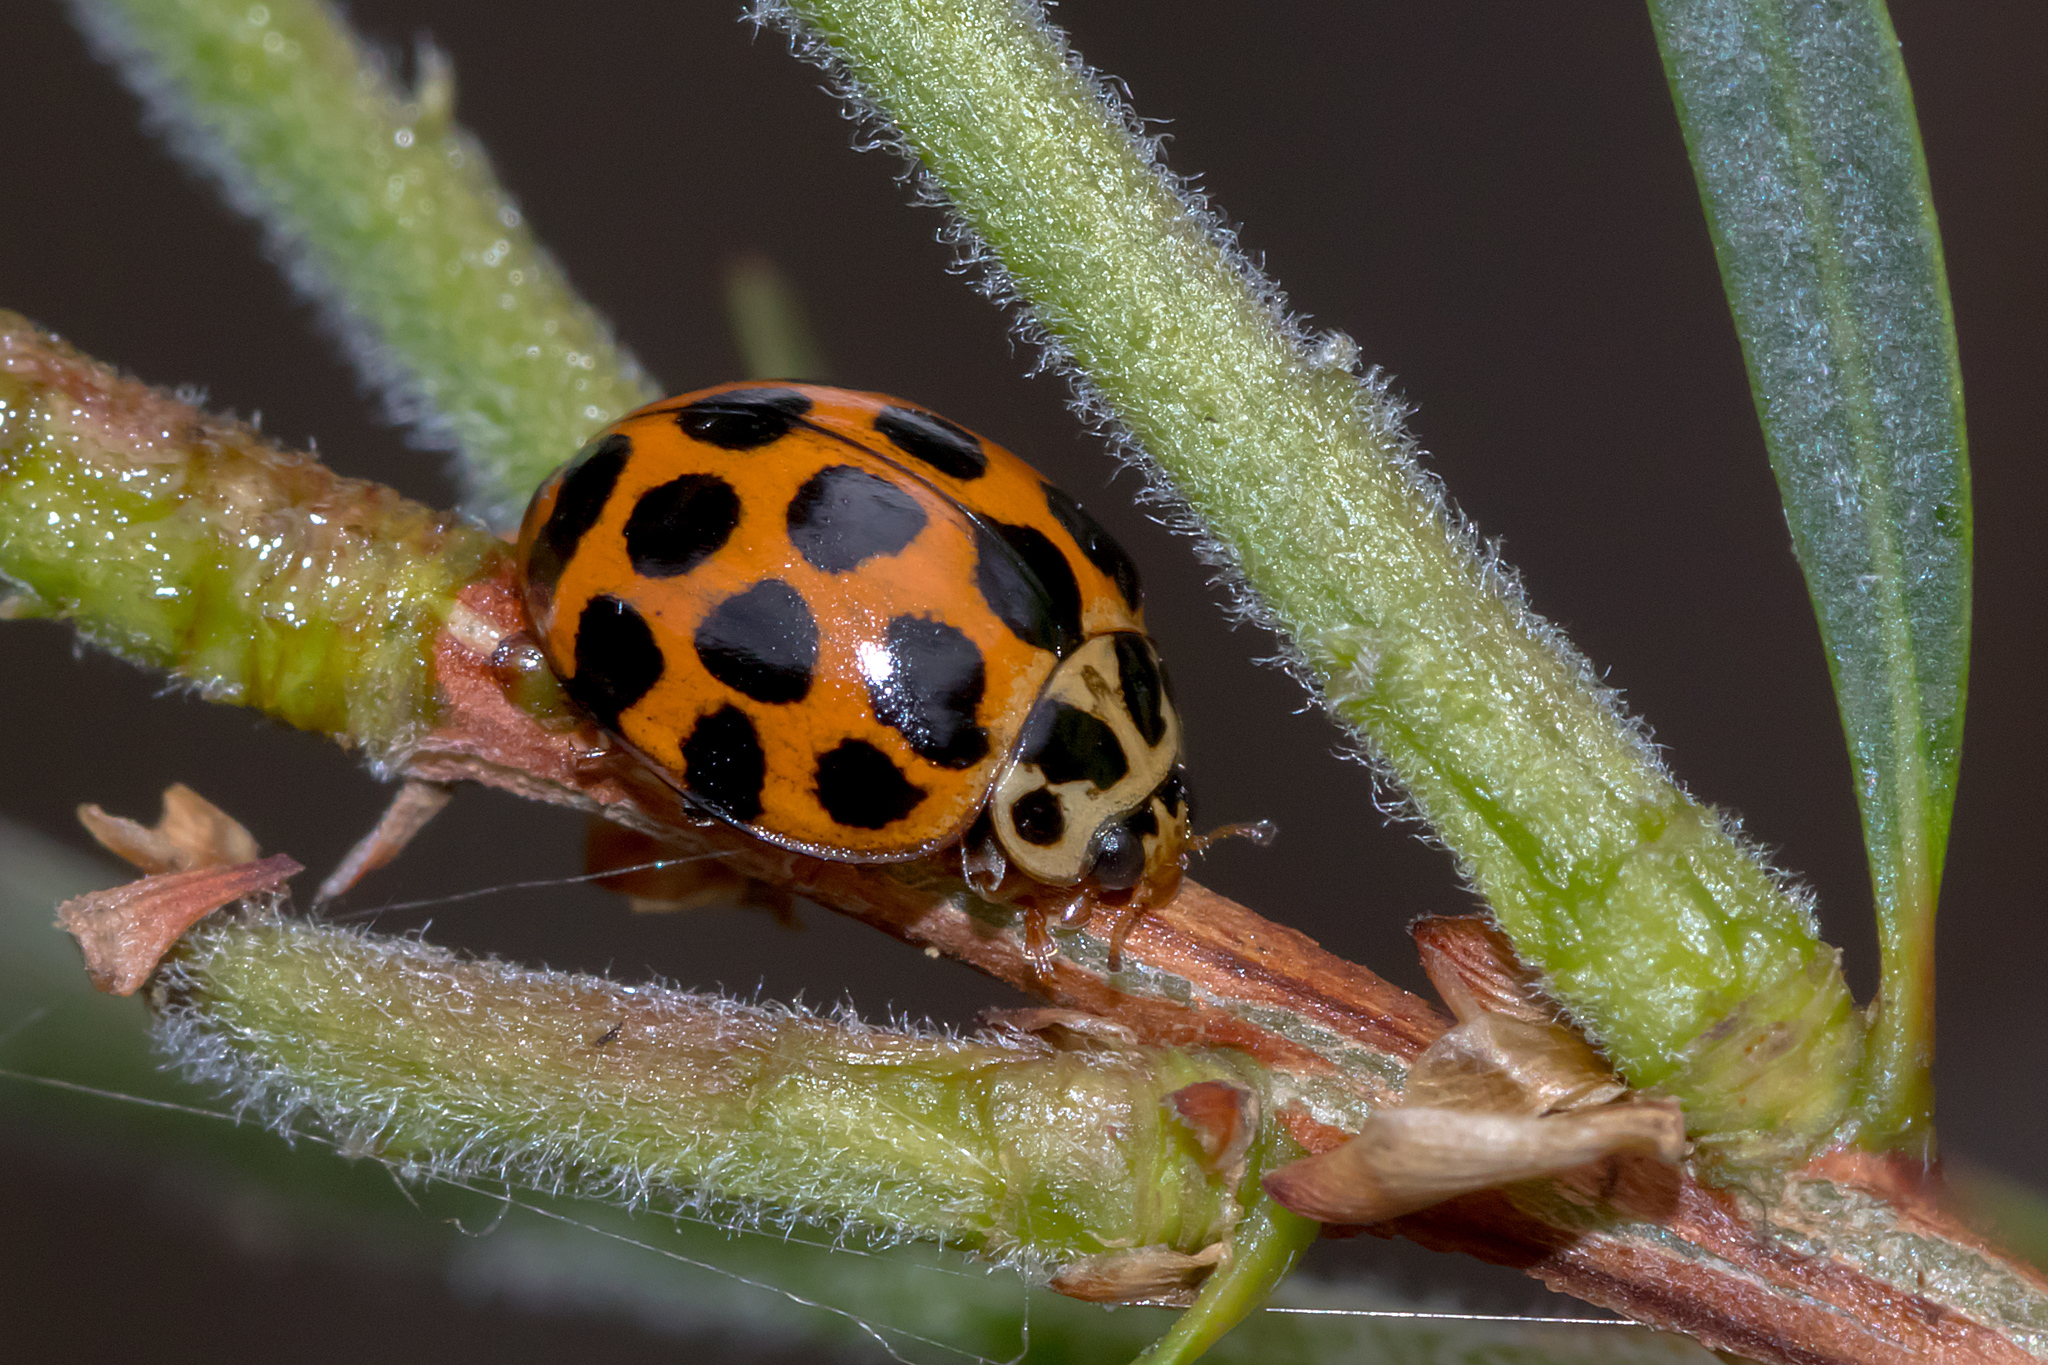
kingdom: Animalia
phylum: Arthropoda
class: Insecta
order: Coleoptera
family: Coccinellidae
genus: Harmonia
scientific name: Harmonia conformis
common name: Common spotted ladybird beetle
